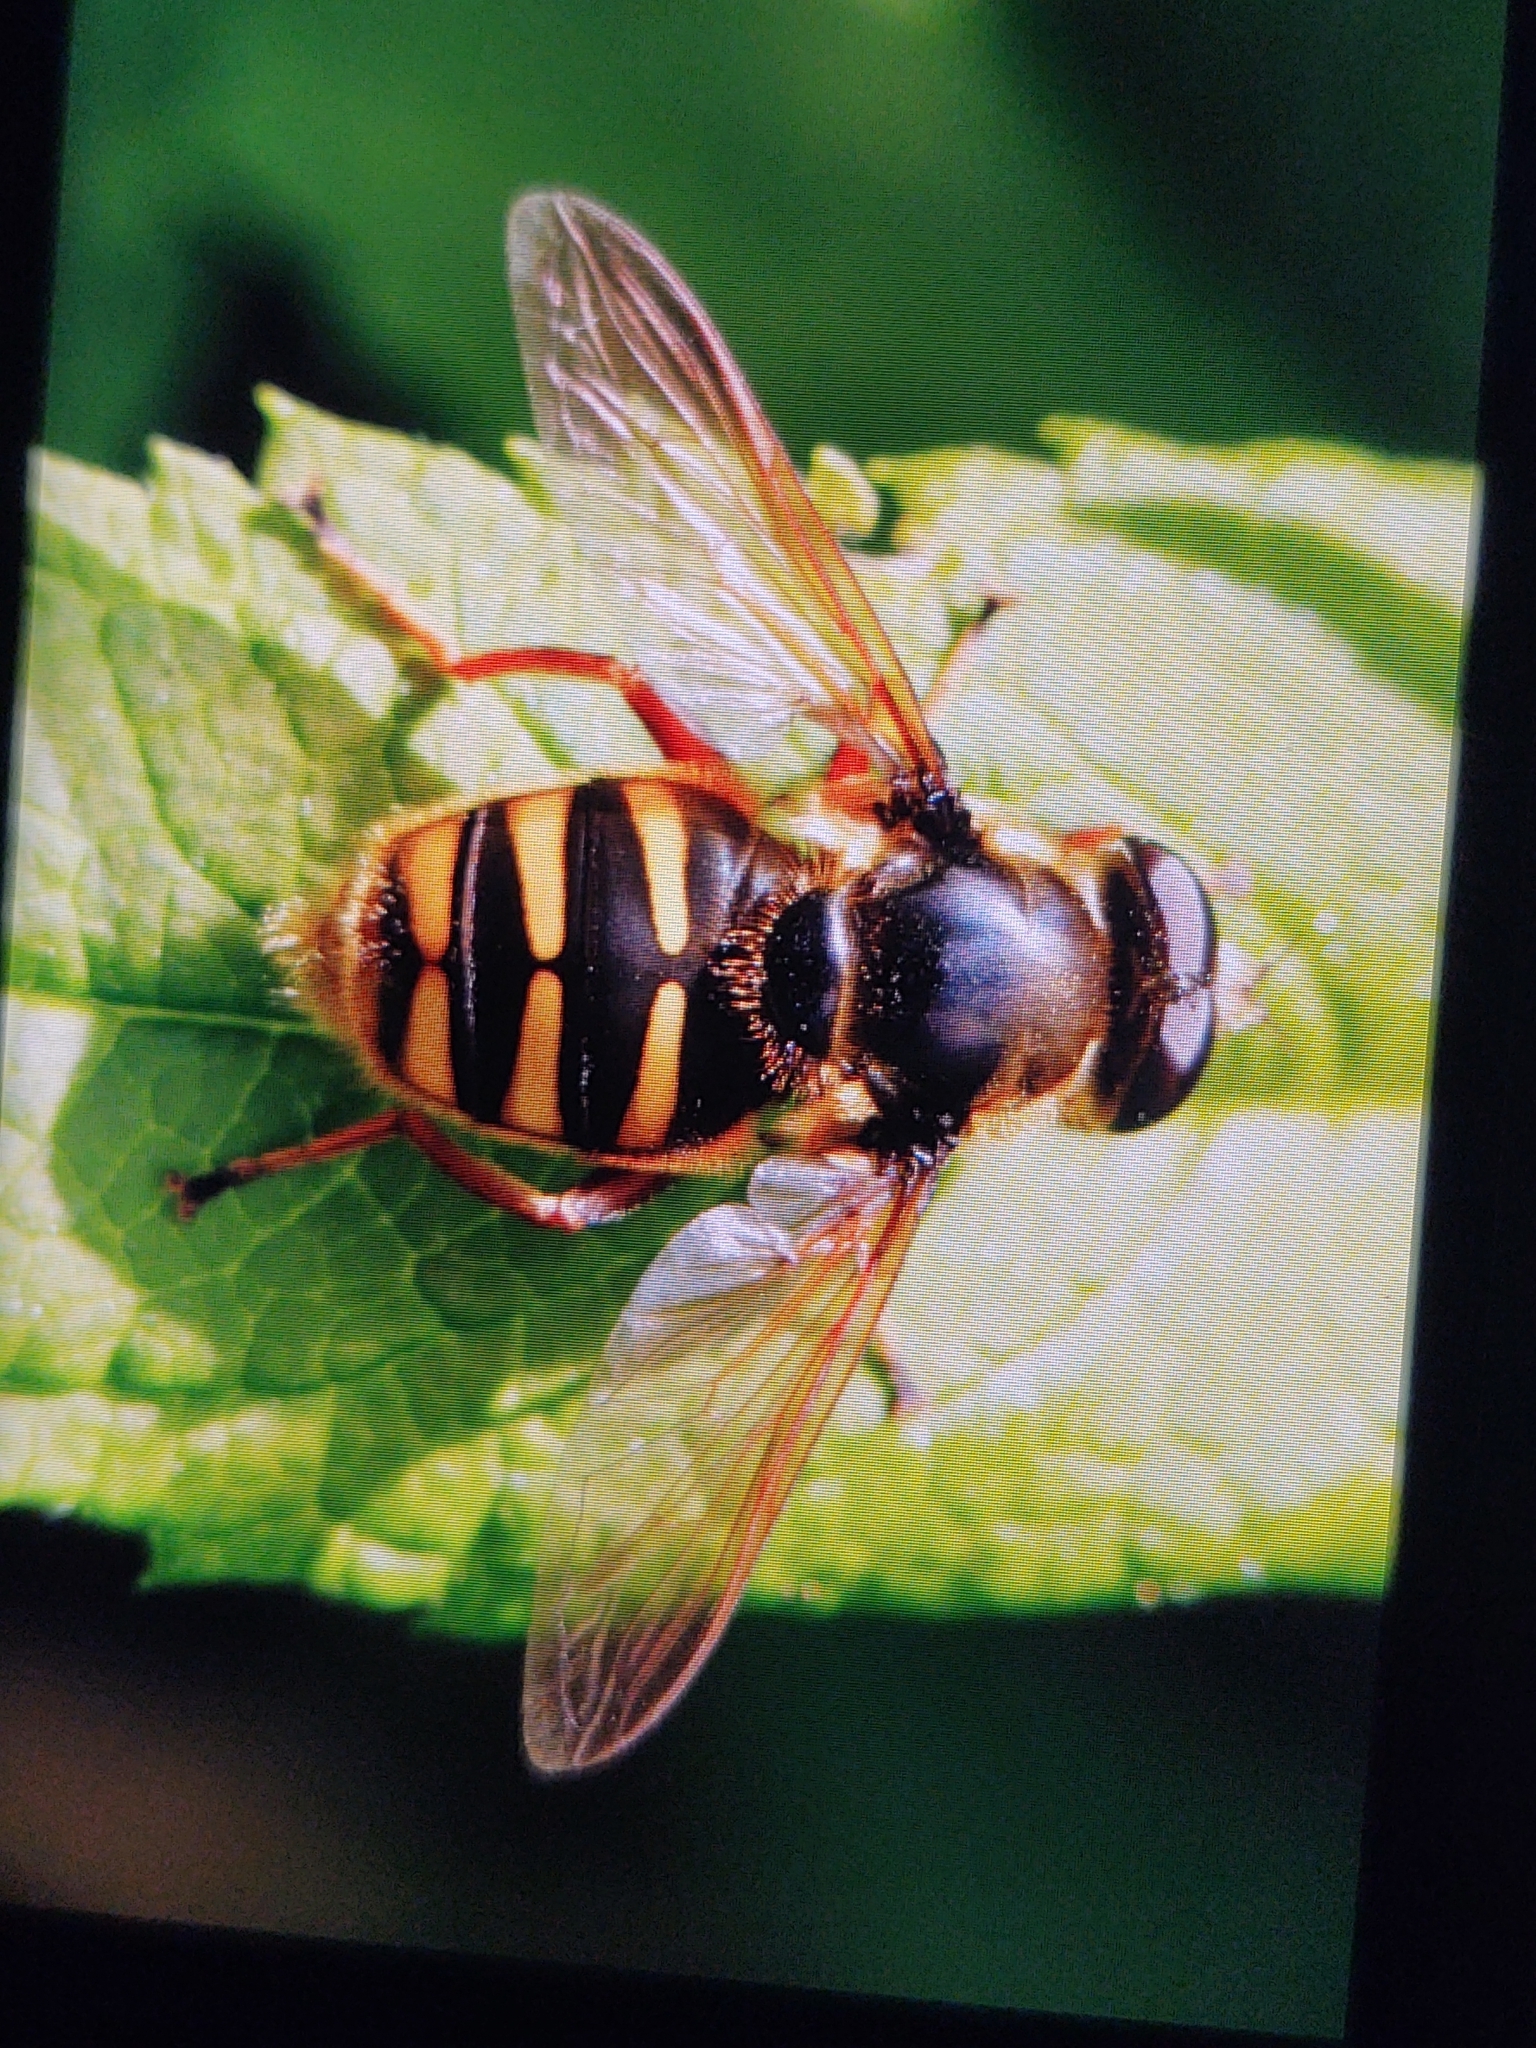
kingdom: Animalia
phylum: Arthropoda
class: Insecta
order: Diptera
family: Syrphidae
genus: Sericomyia
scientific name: Sericomyia silentis
